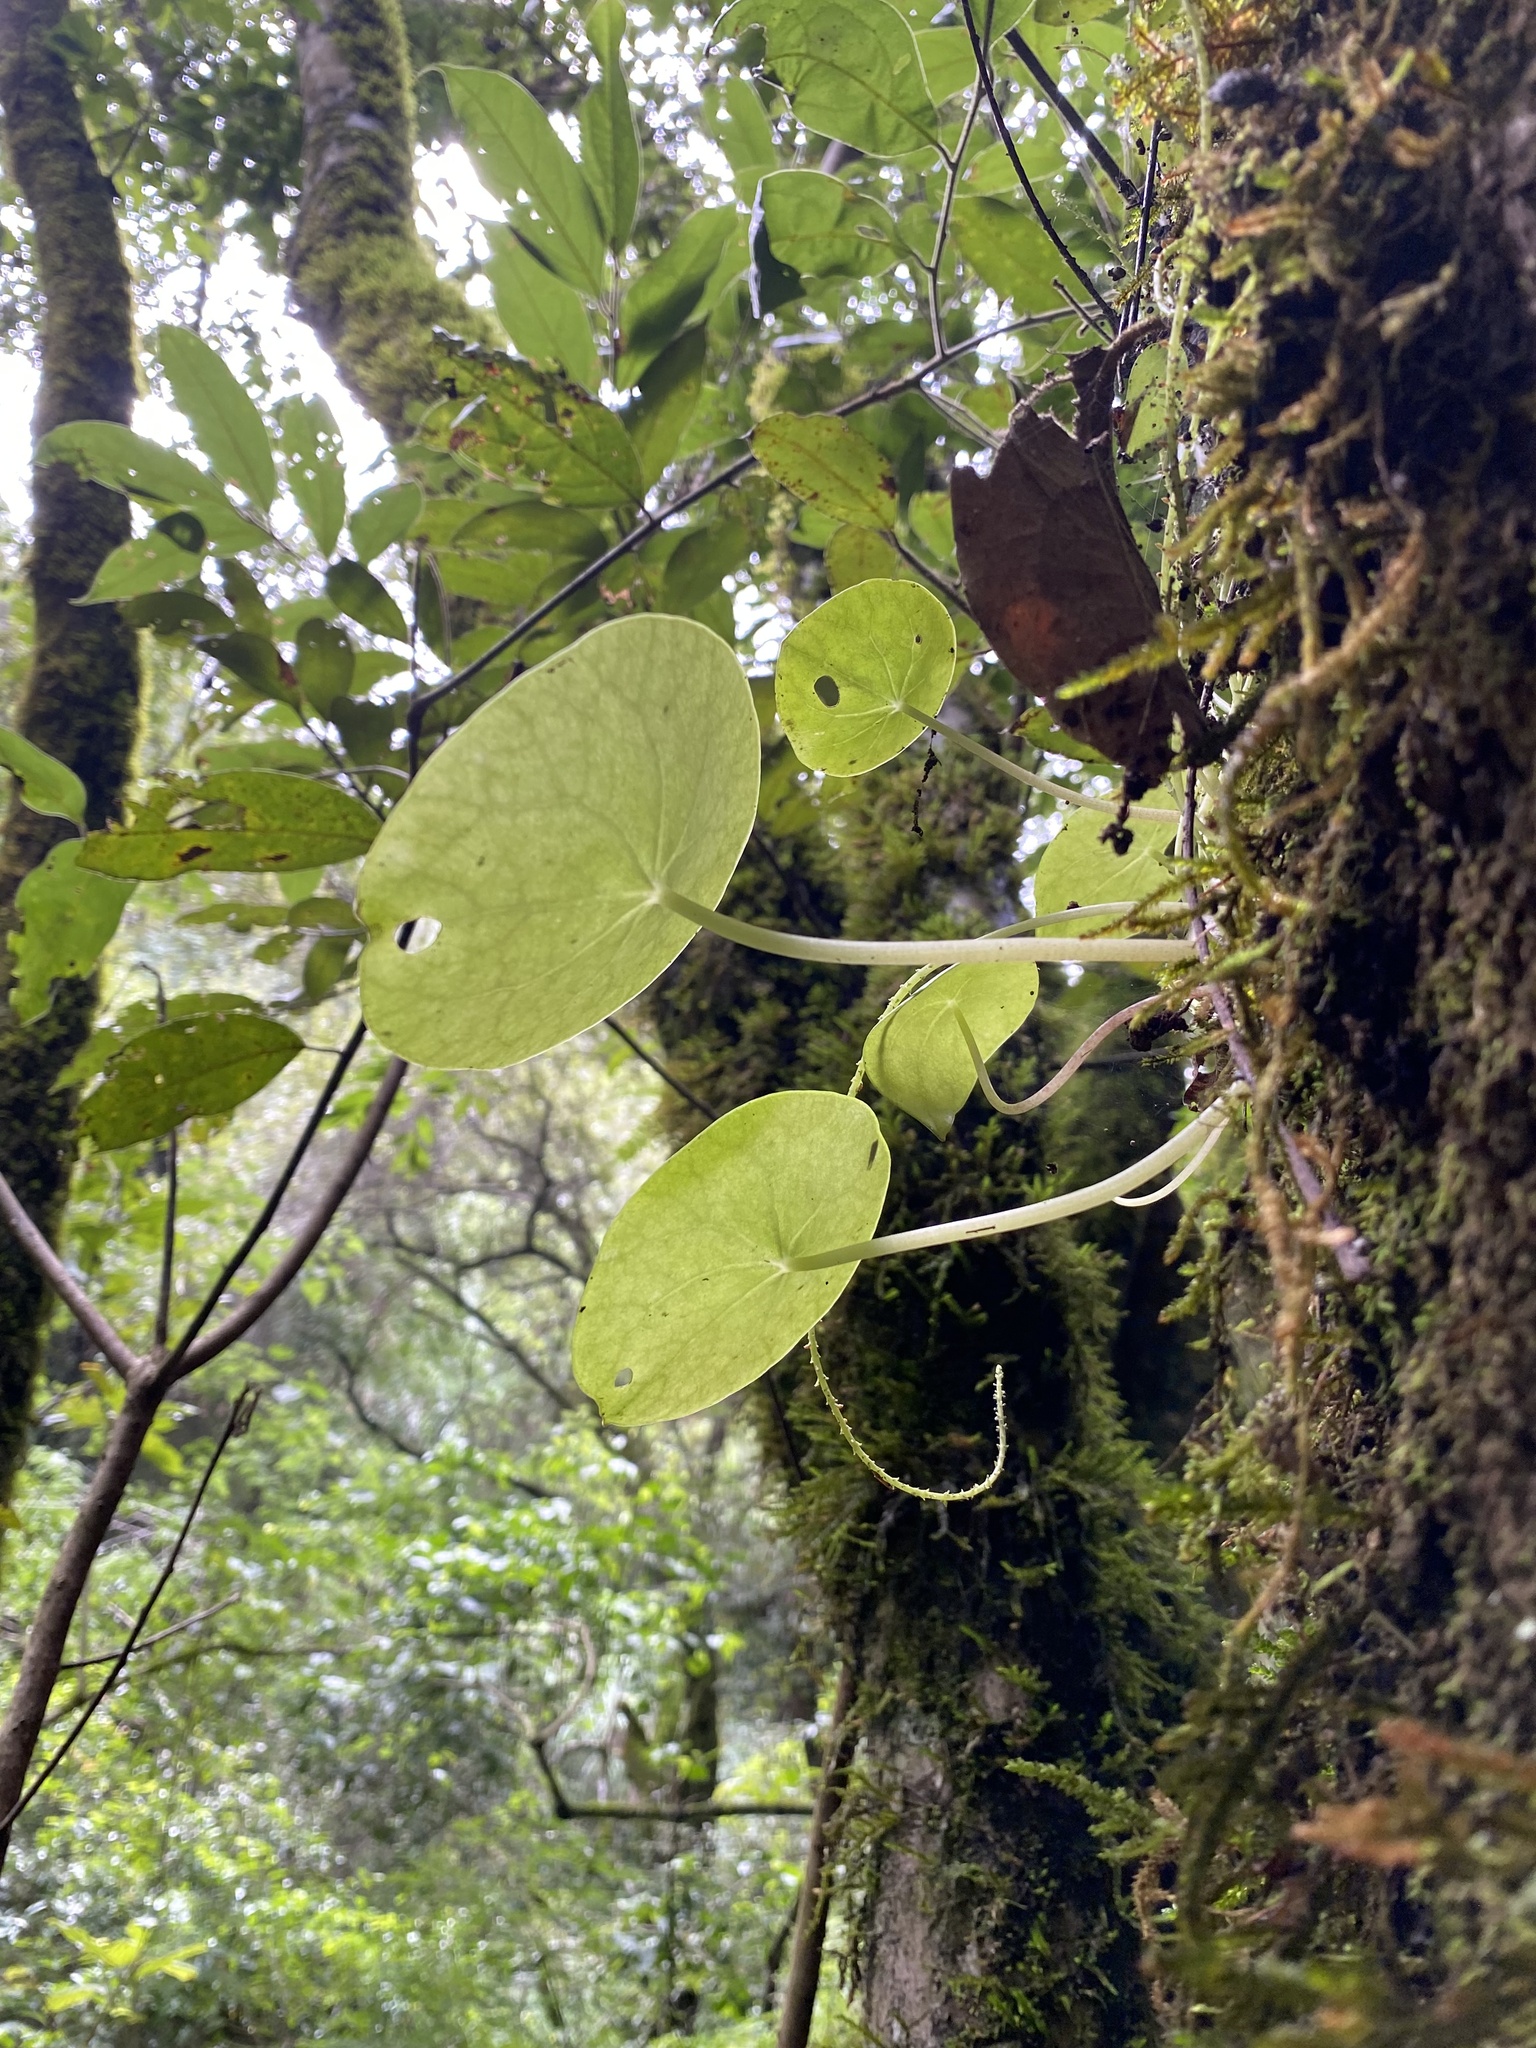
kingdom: Plantae
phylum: Tracheophyta
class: Magnoliopsida
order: Piperales
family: Piperaceae
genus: Peperomia
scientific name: Peperomia bracteata
